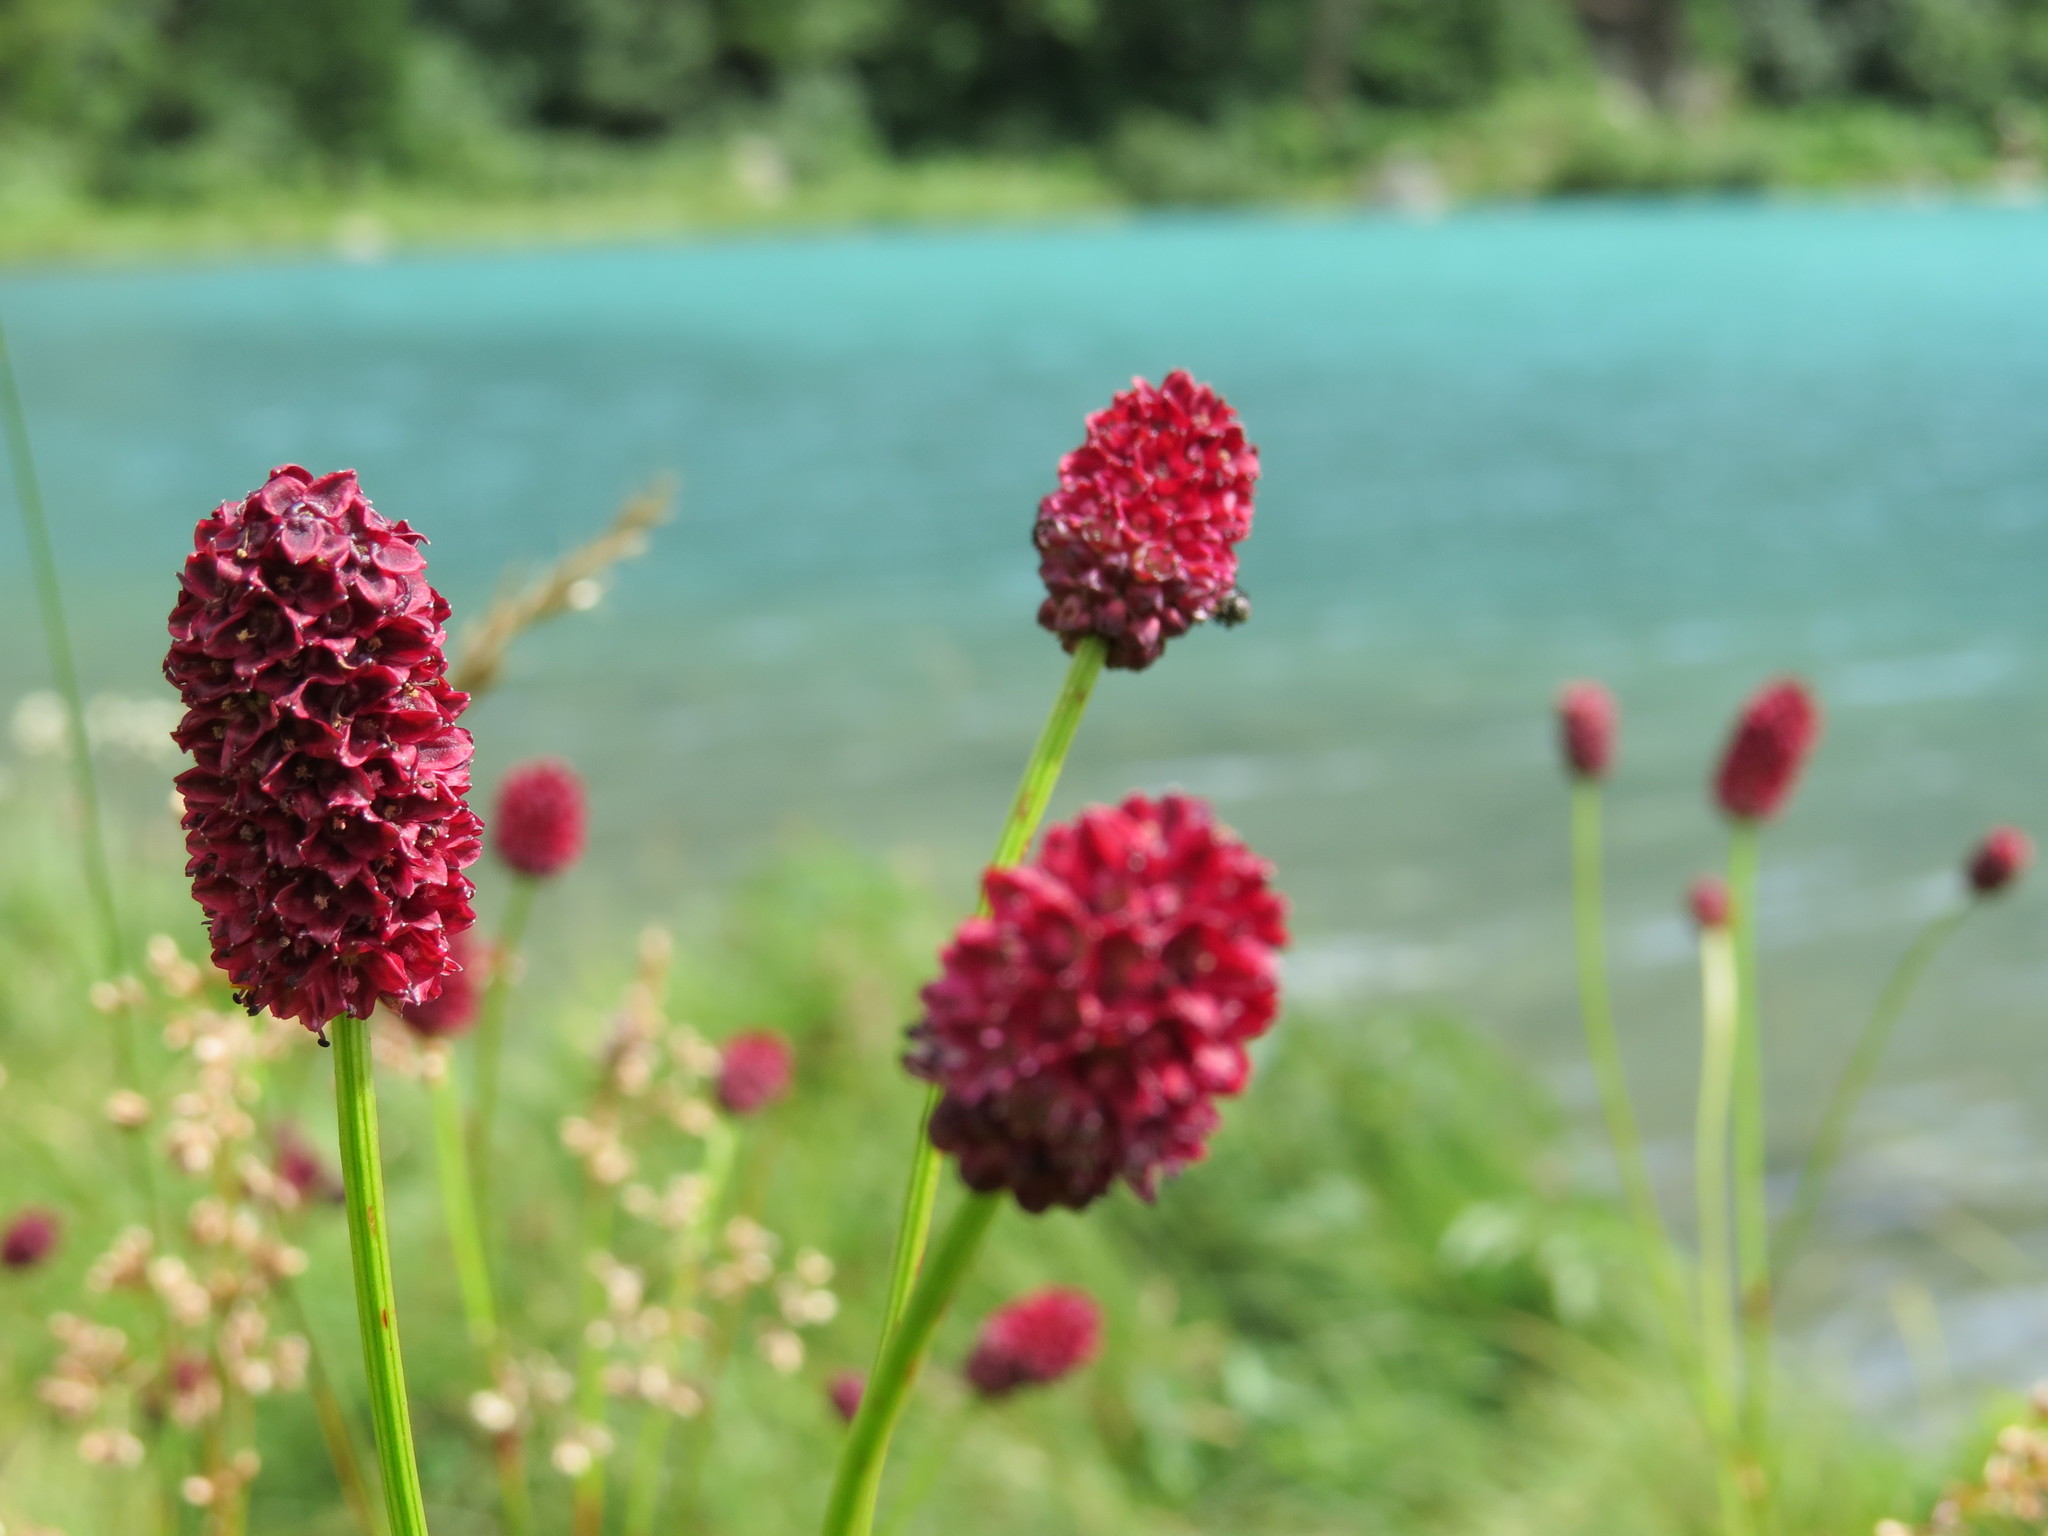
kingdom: Plantae
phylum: Tracheophyta
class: Magnoliopsida
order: Rosales
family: Rosaceae
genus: Sanguisorba
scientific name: Sanguisorba officinalis
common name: Great burnet
